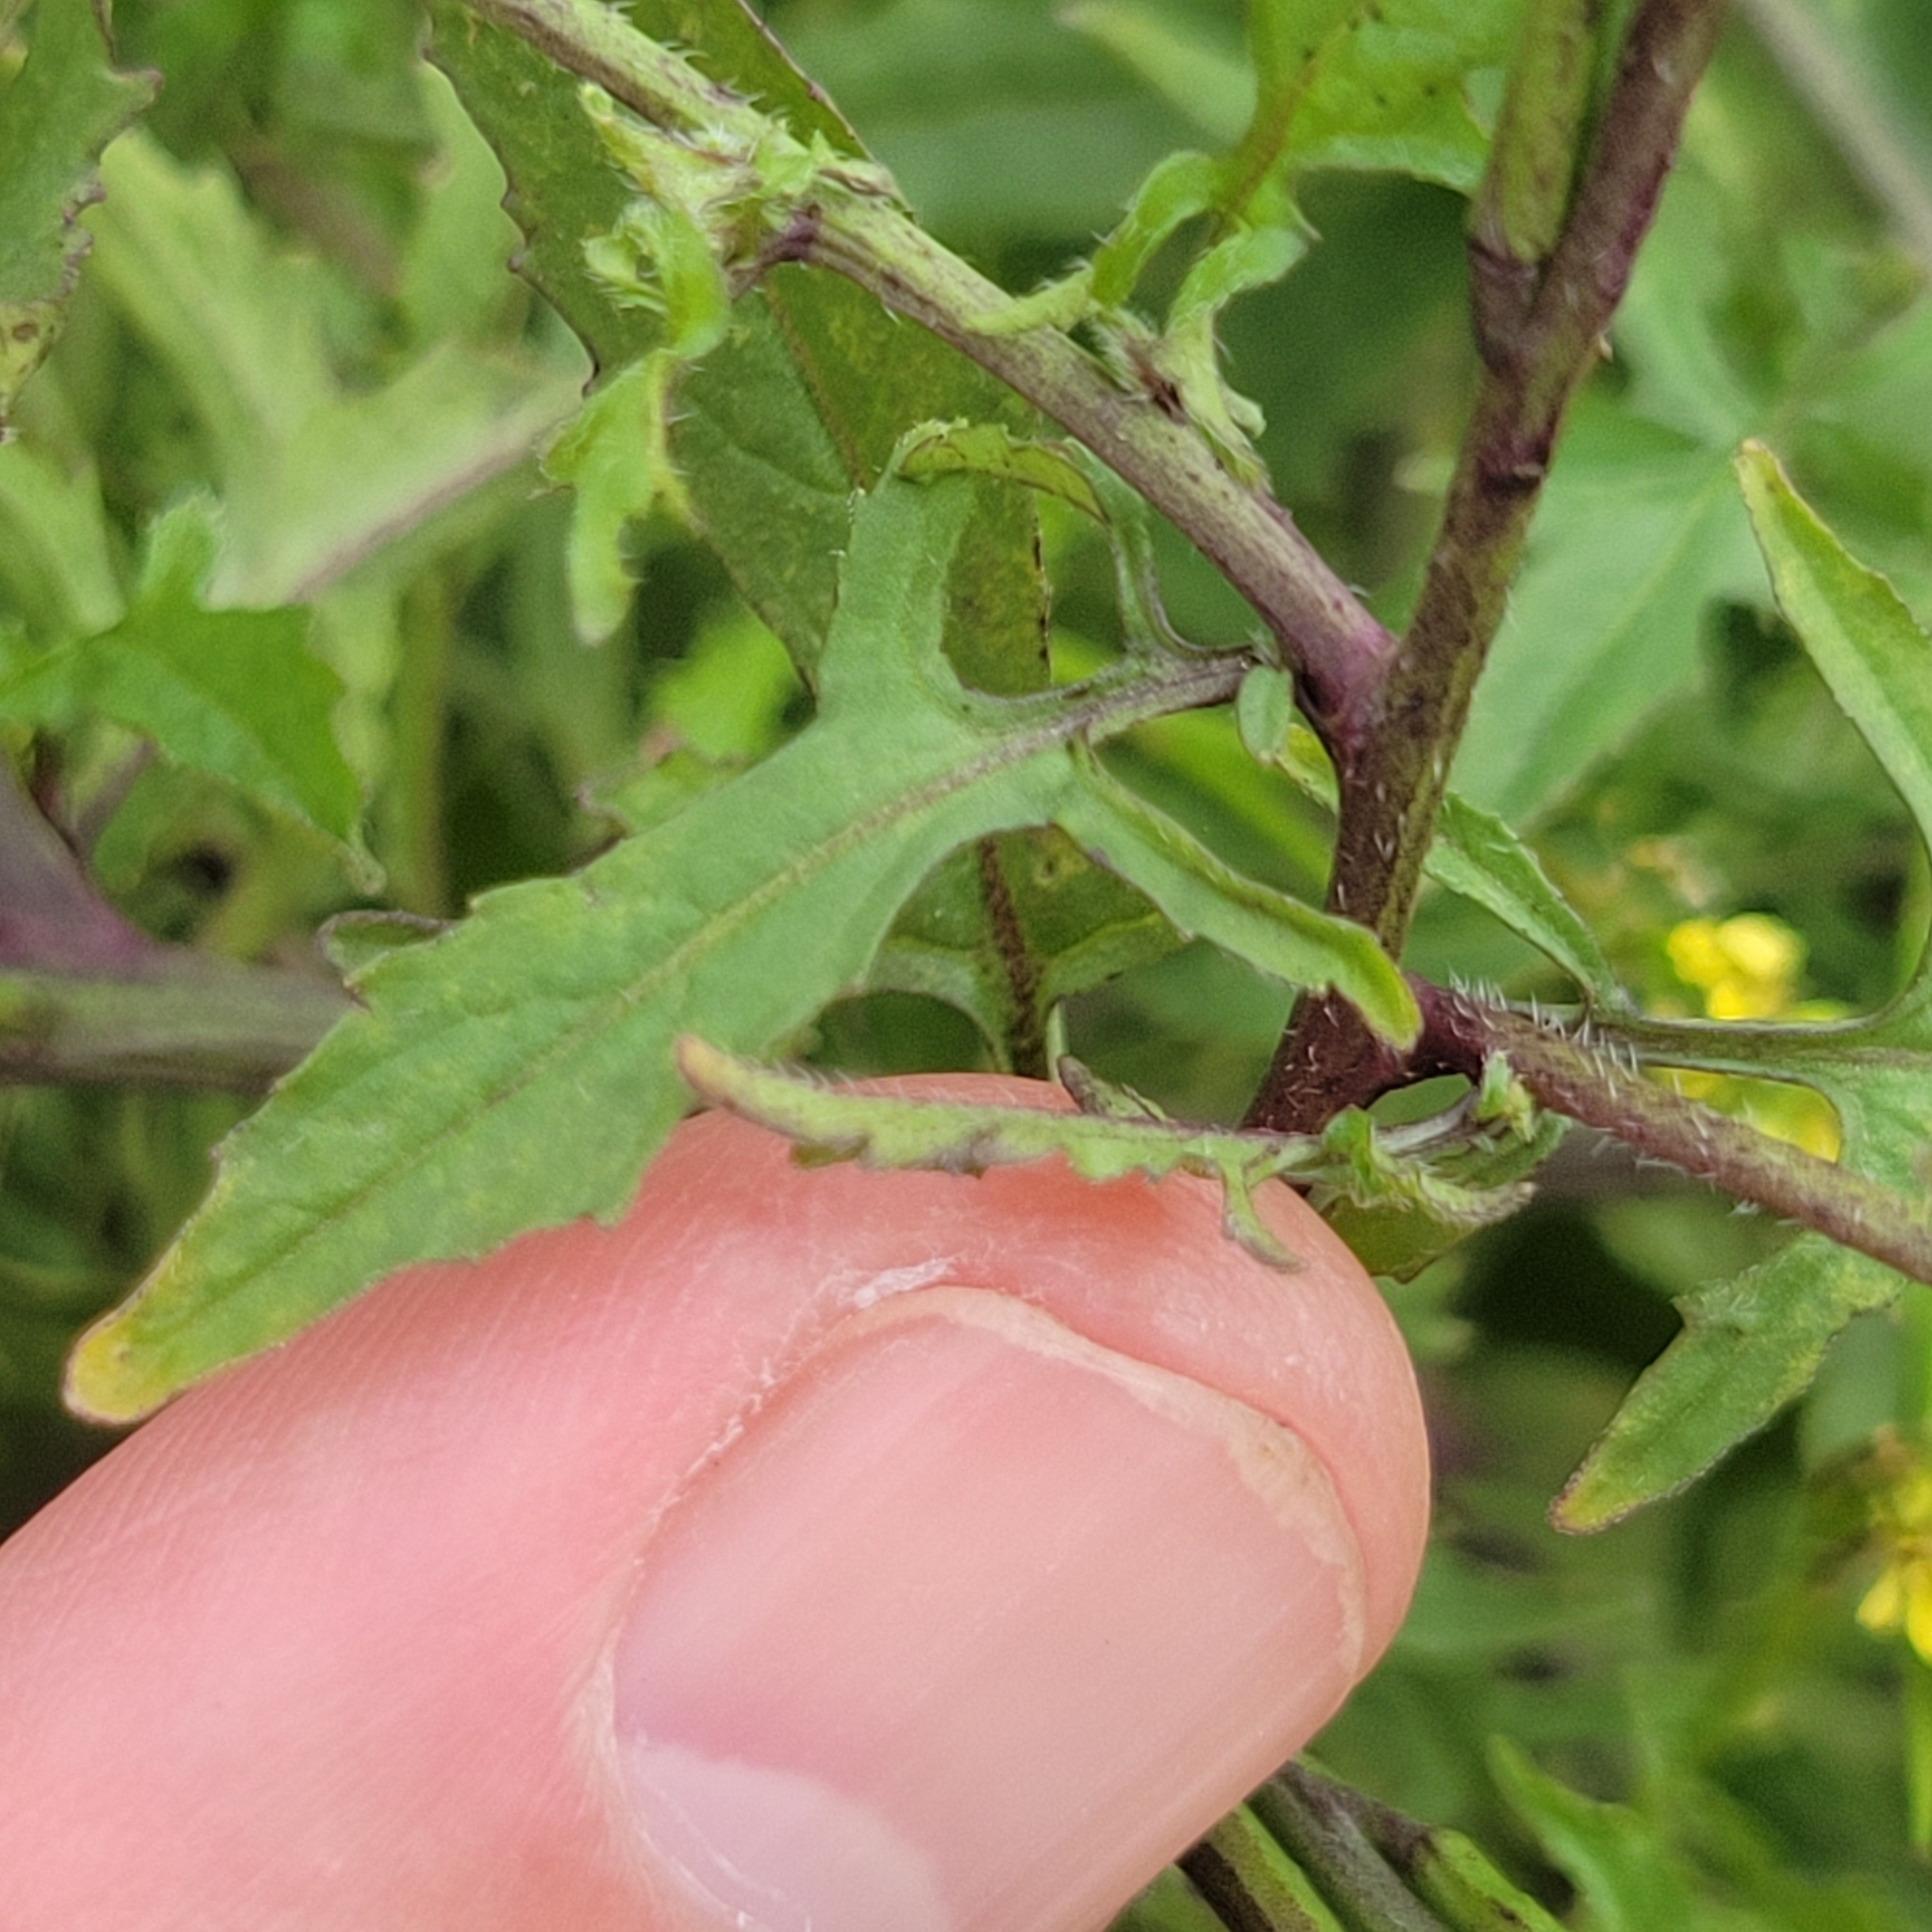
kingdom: Plantae
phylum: Tracheophyta
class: Magnoliopsida
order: Brassicales
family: Brassicaceae
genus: Sisymbrium
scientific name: Sisymbrium officinale
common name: Hedge mustard
